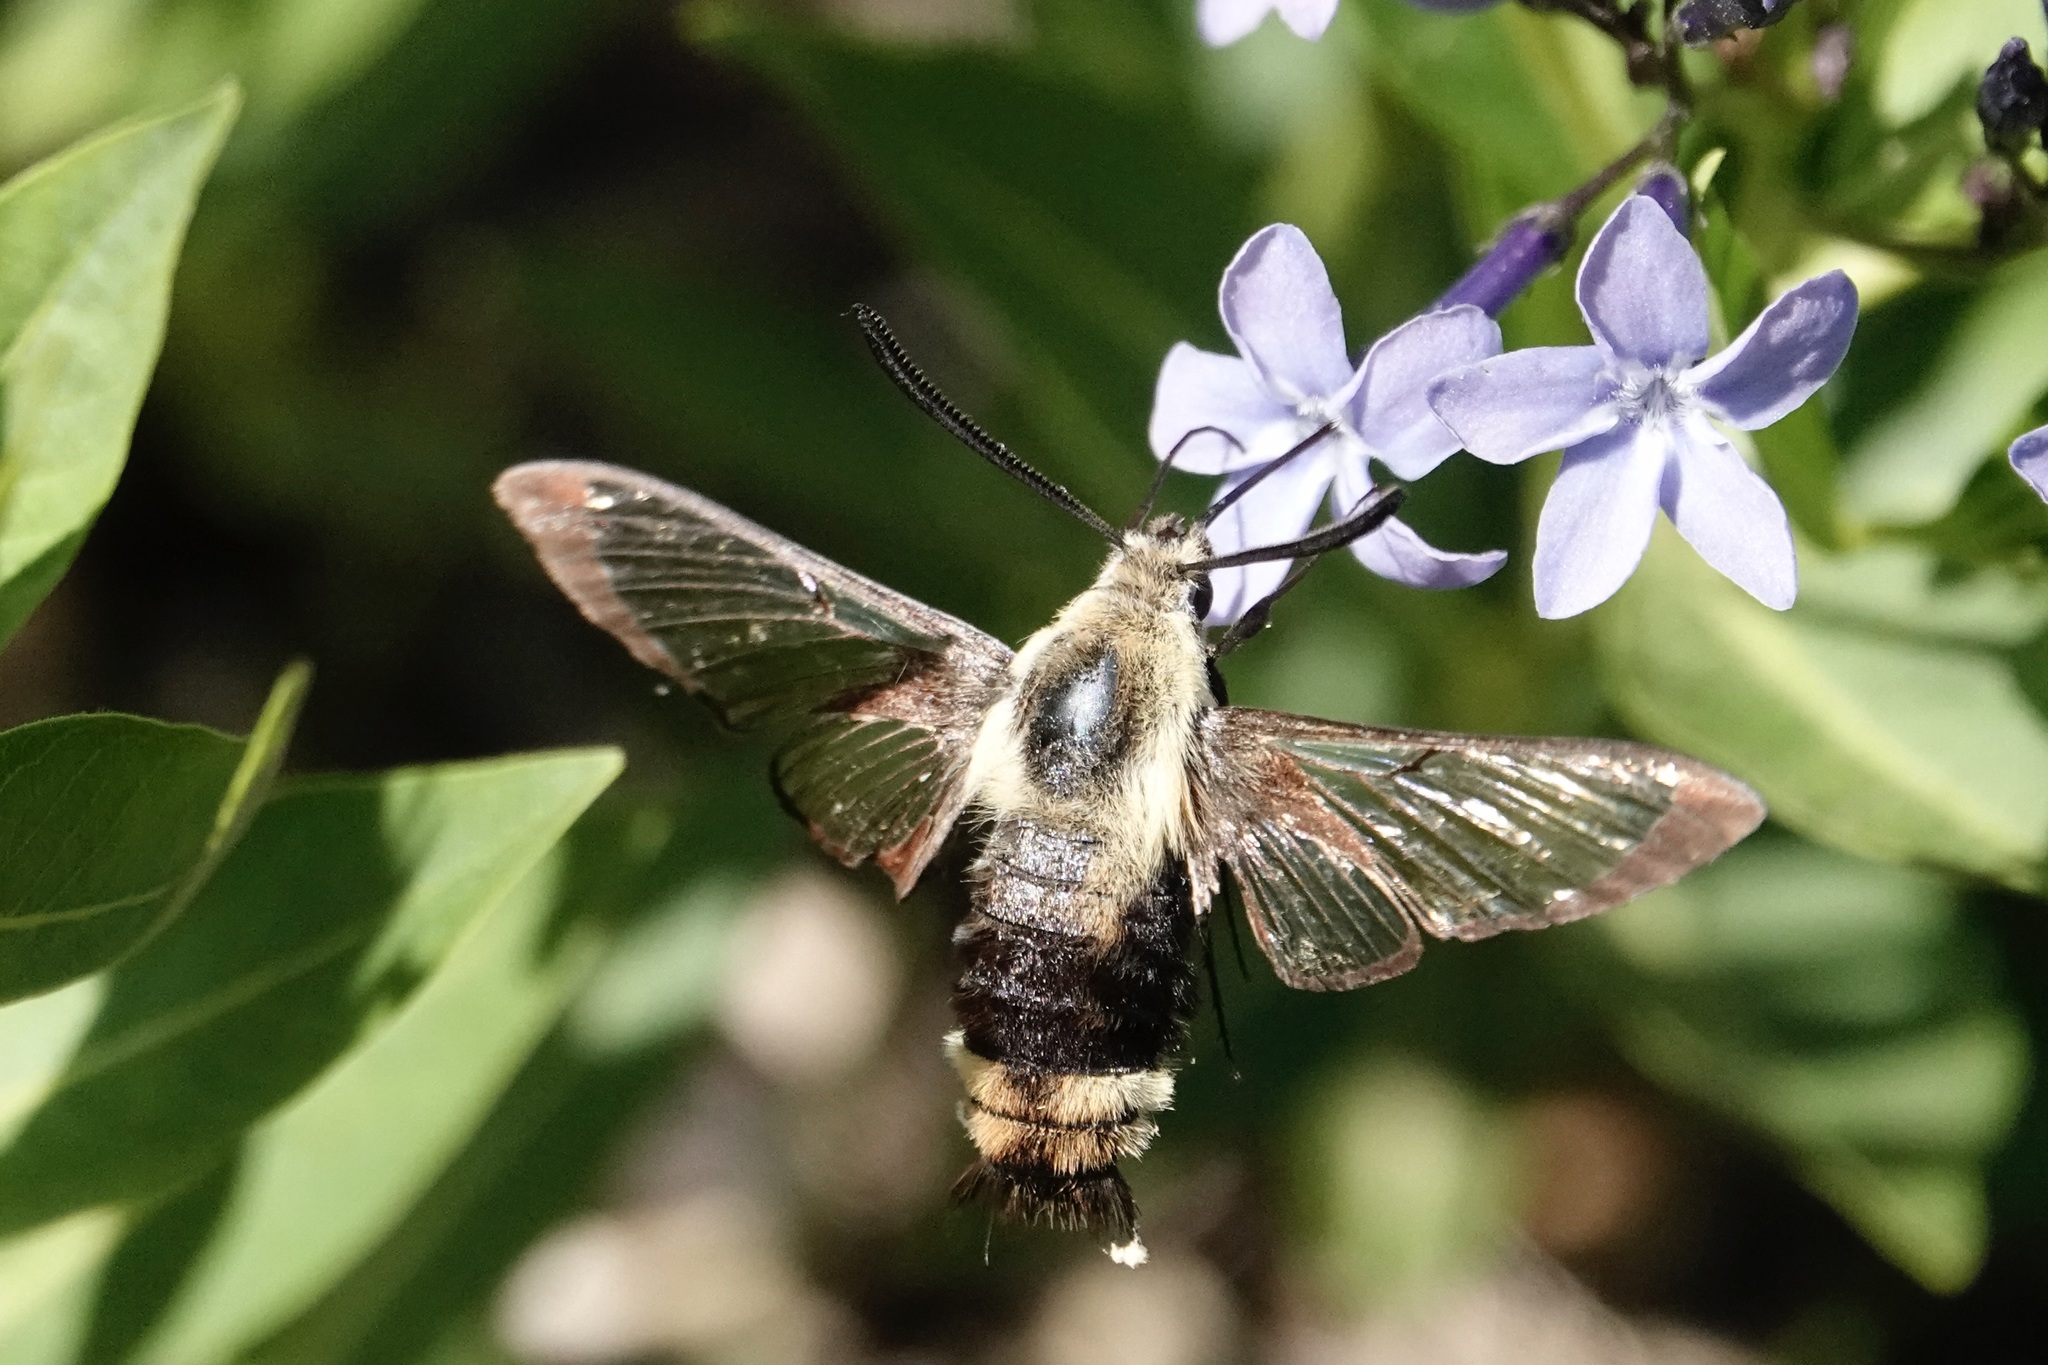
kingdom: Animalia
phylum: Arthropoda
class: Insecta
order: Lepidoptera
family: Sphingidae
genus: Hemaris
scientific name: Hemaris diffinis
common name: Bumblebee moth
